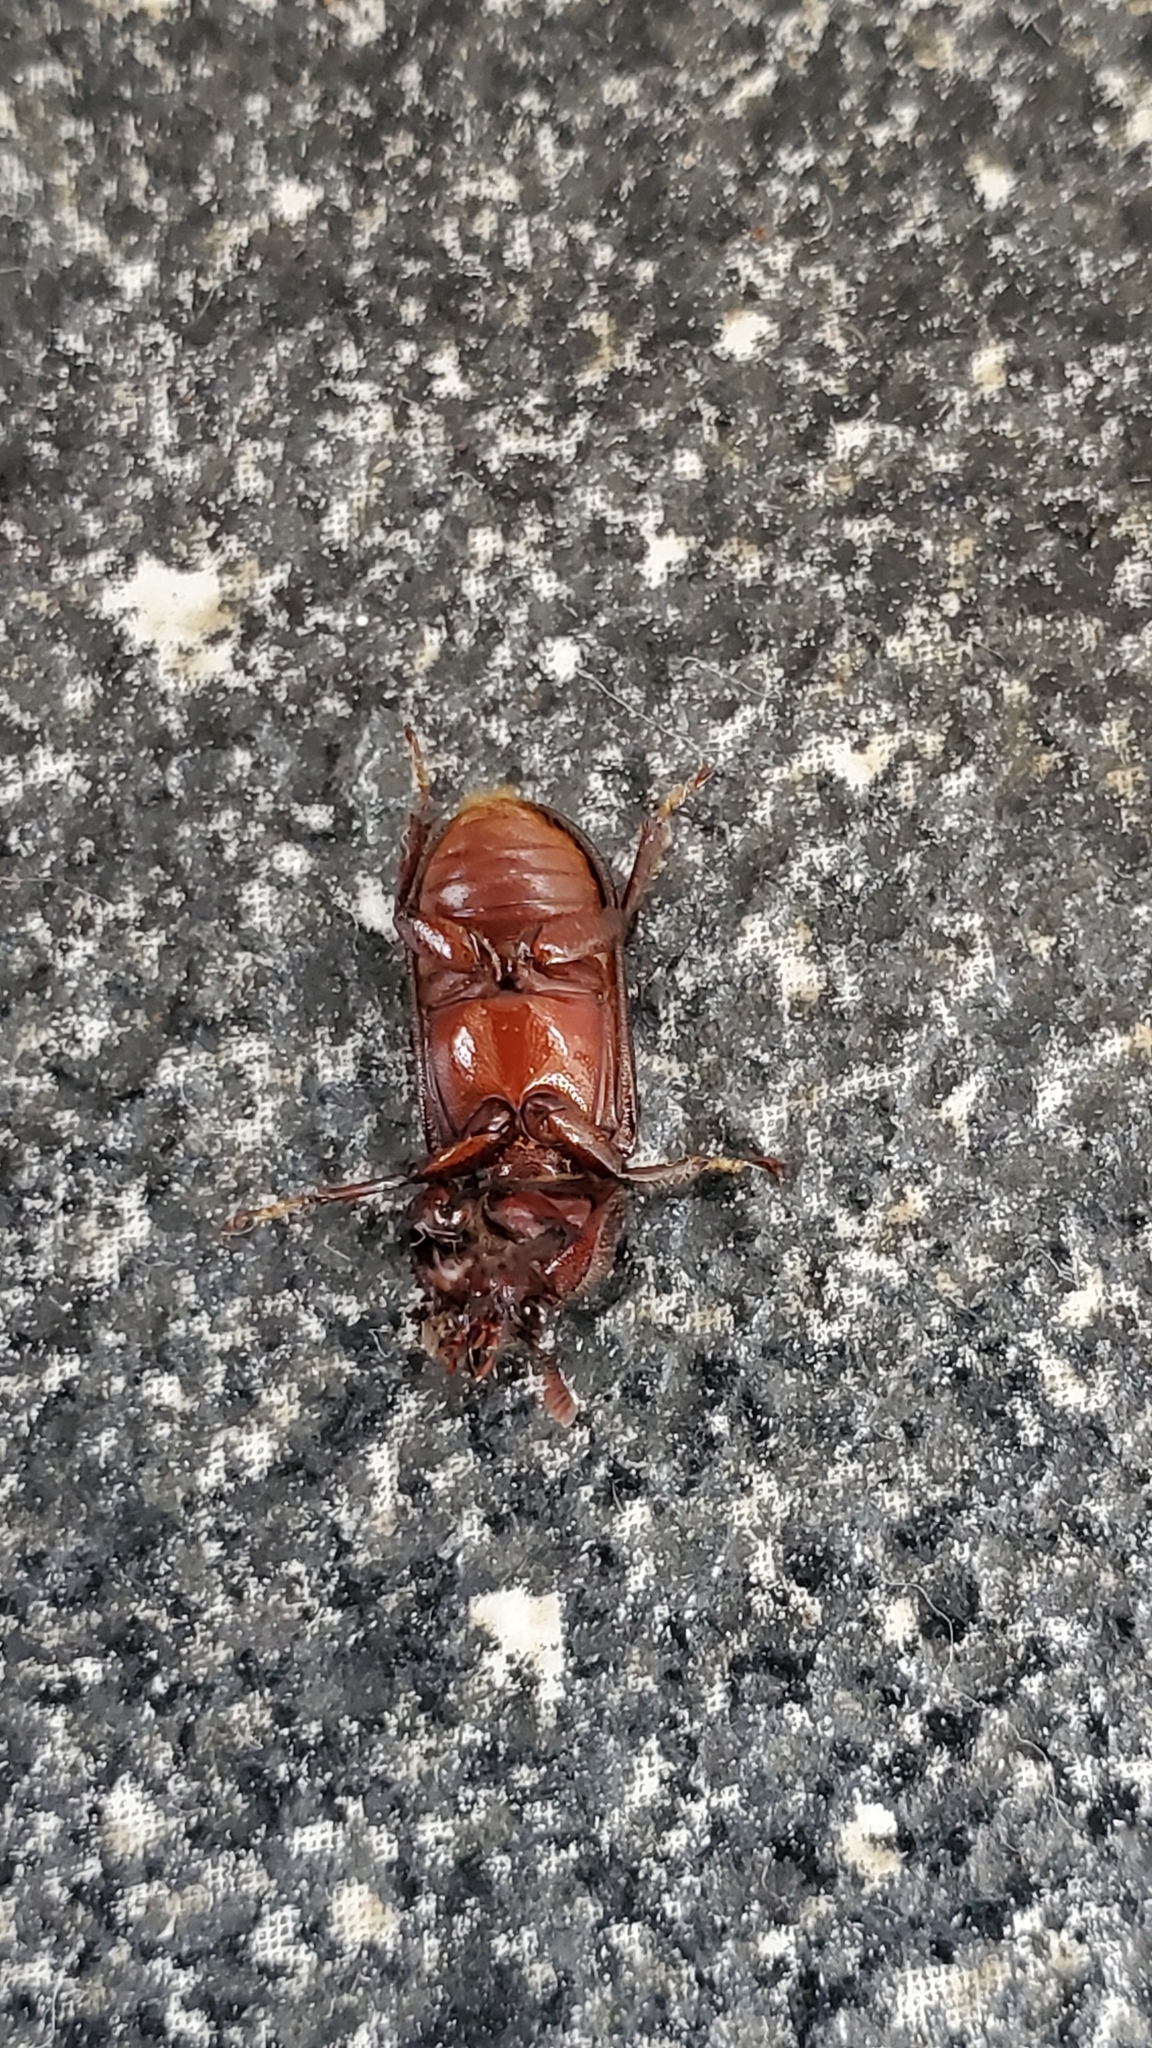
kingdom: Animalia
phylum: Arthropoda
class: Insecta
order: Coleoptera
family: Lucanidae
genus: Syndesus
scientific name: Syndesus cornutus
